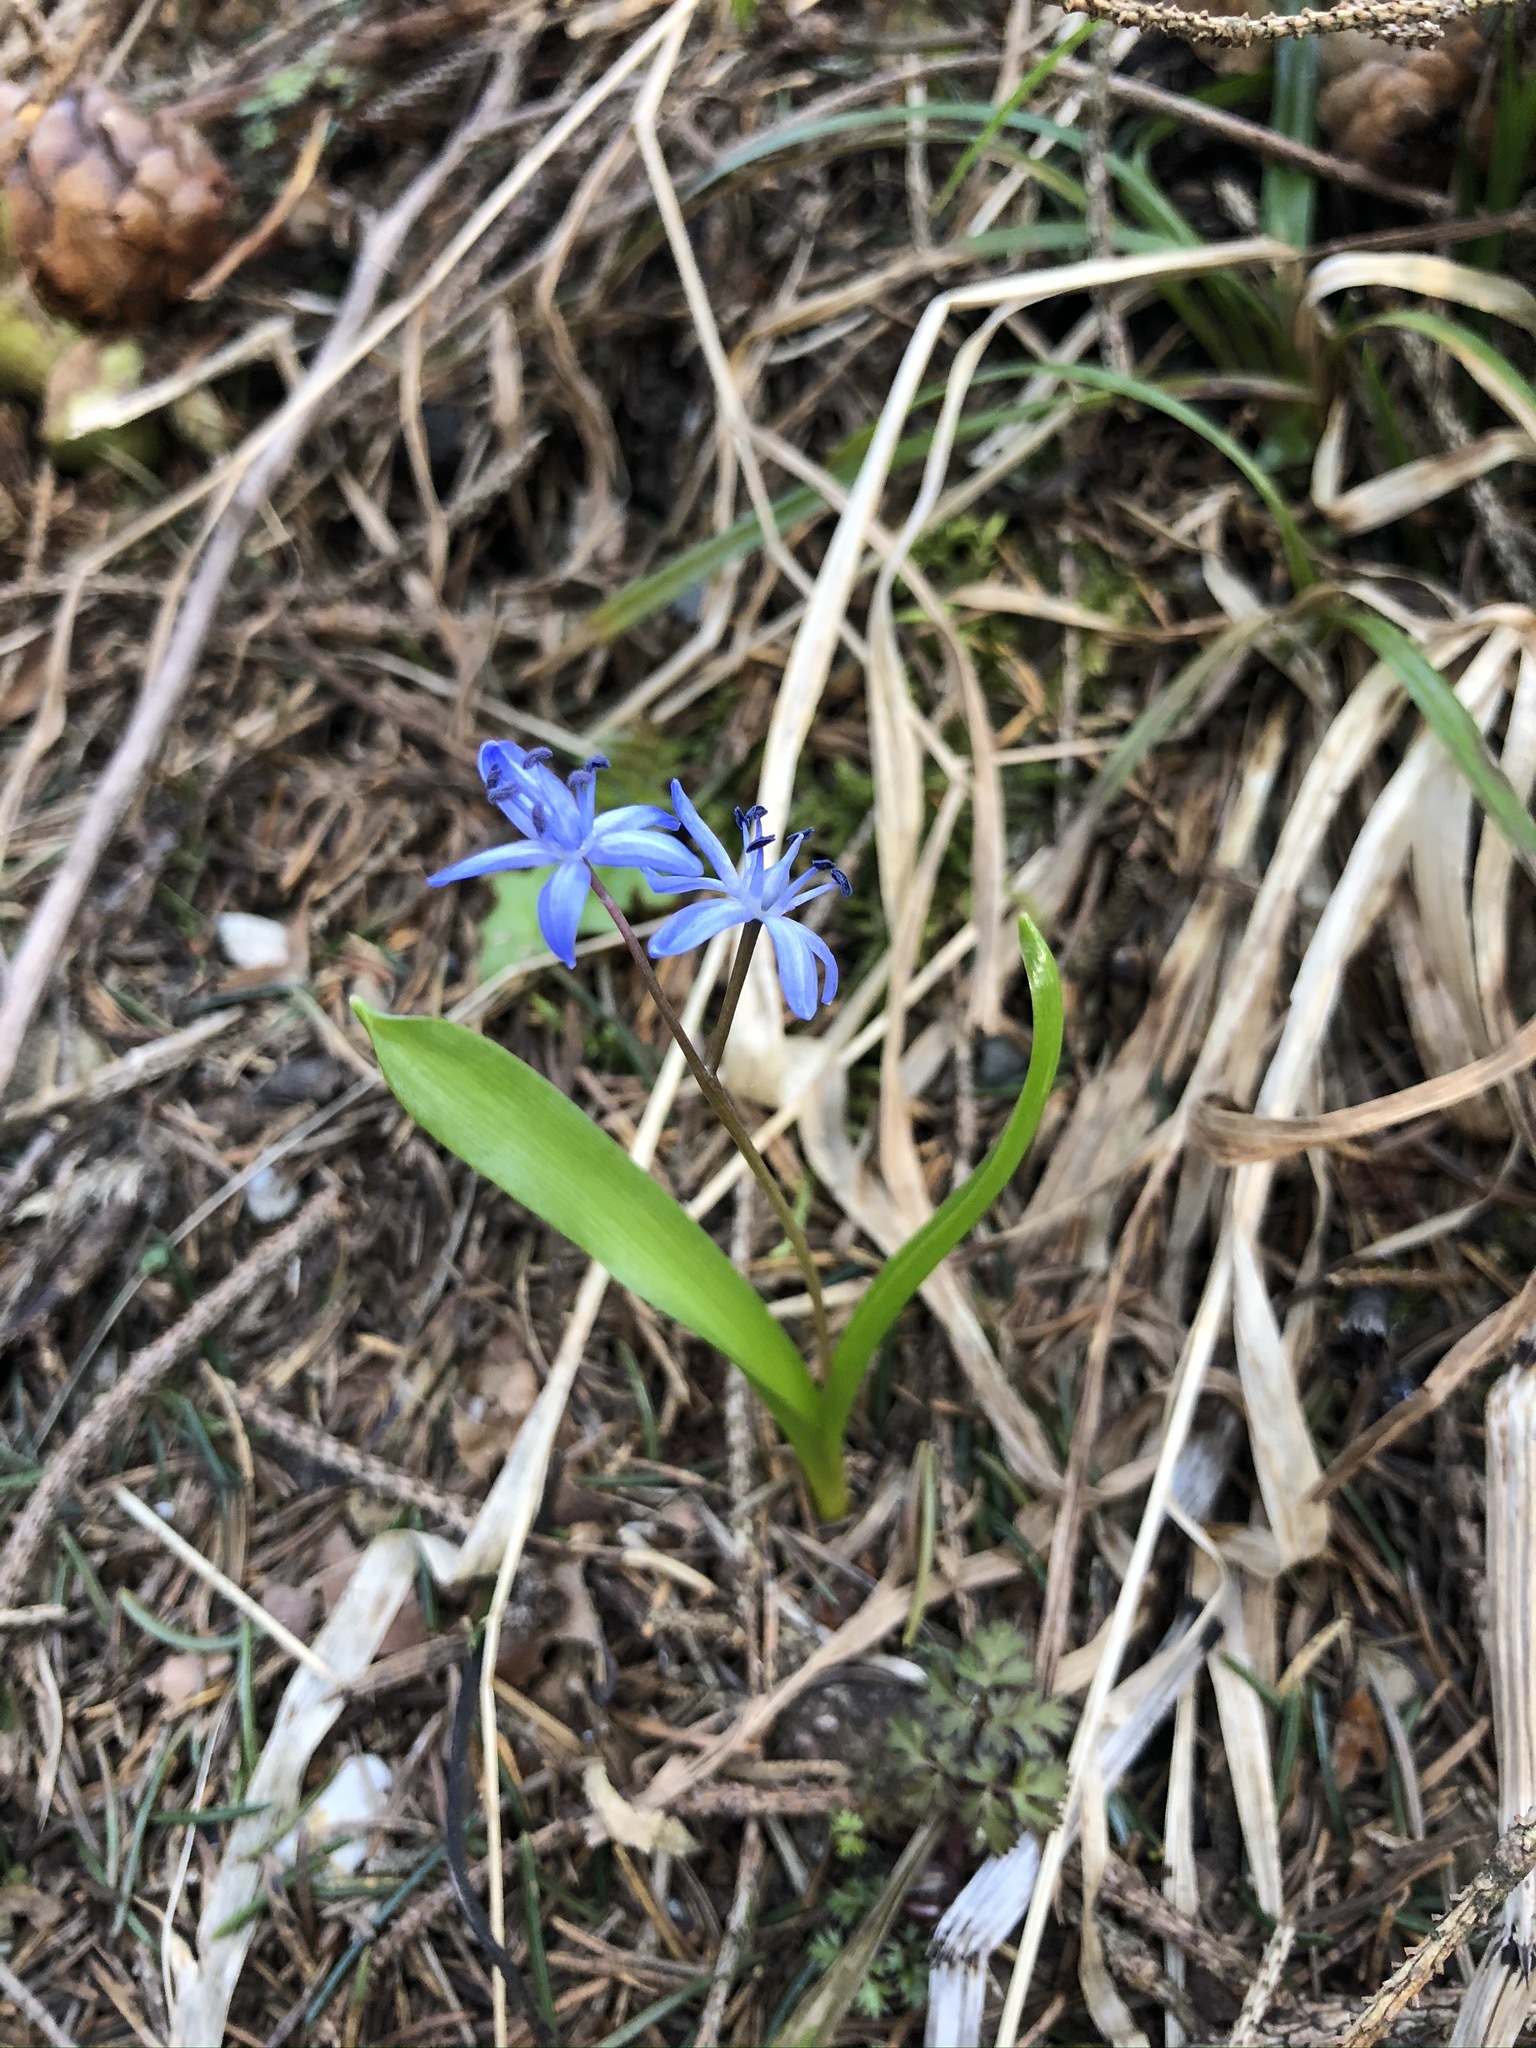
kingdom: Plantae
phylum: Tracheophyta
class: Liliopsida
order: Asparagales
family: Asparagaceae
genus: Scilla
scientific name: Scilla bifolia
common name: Alpine squill
